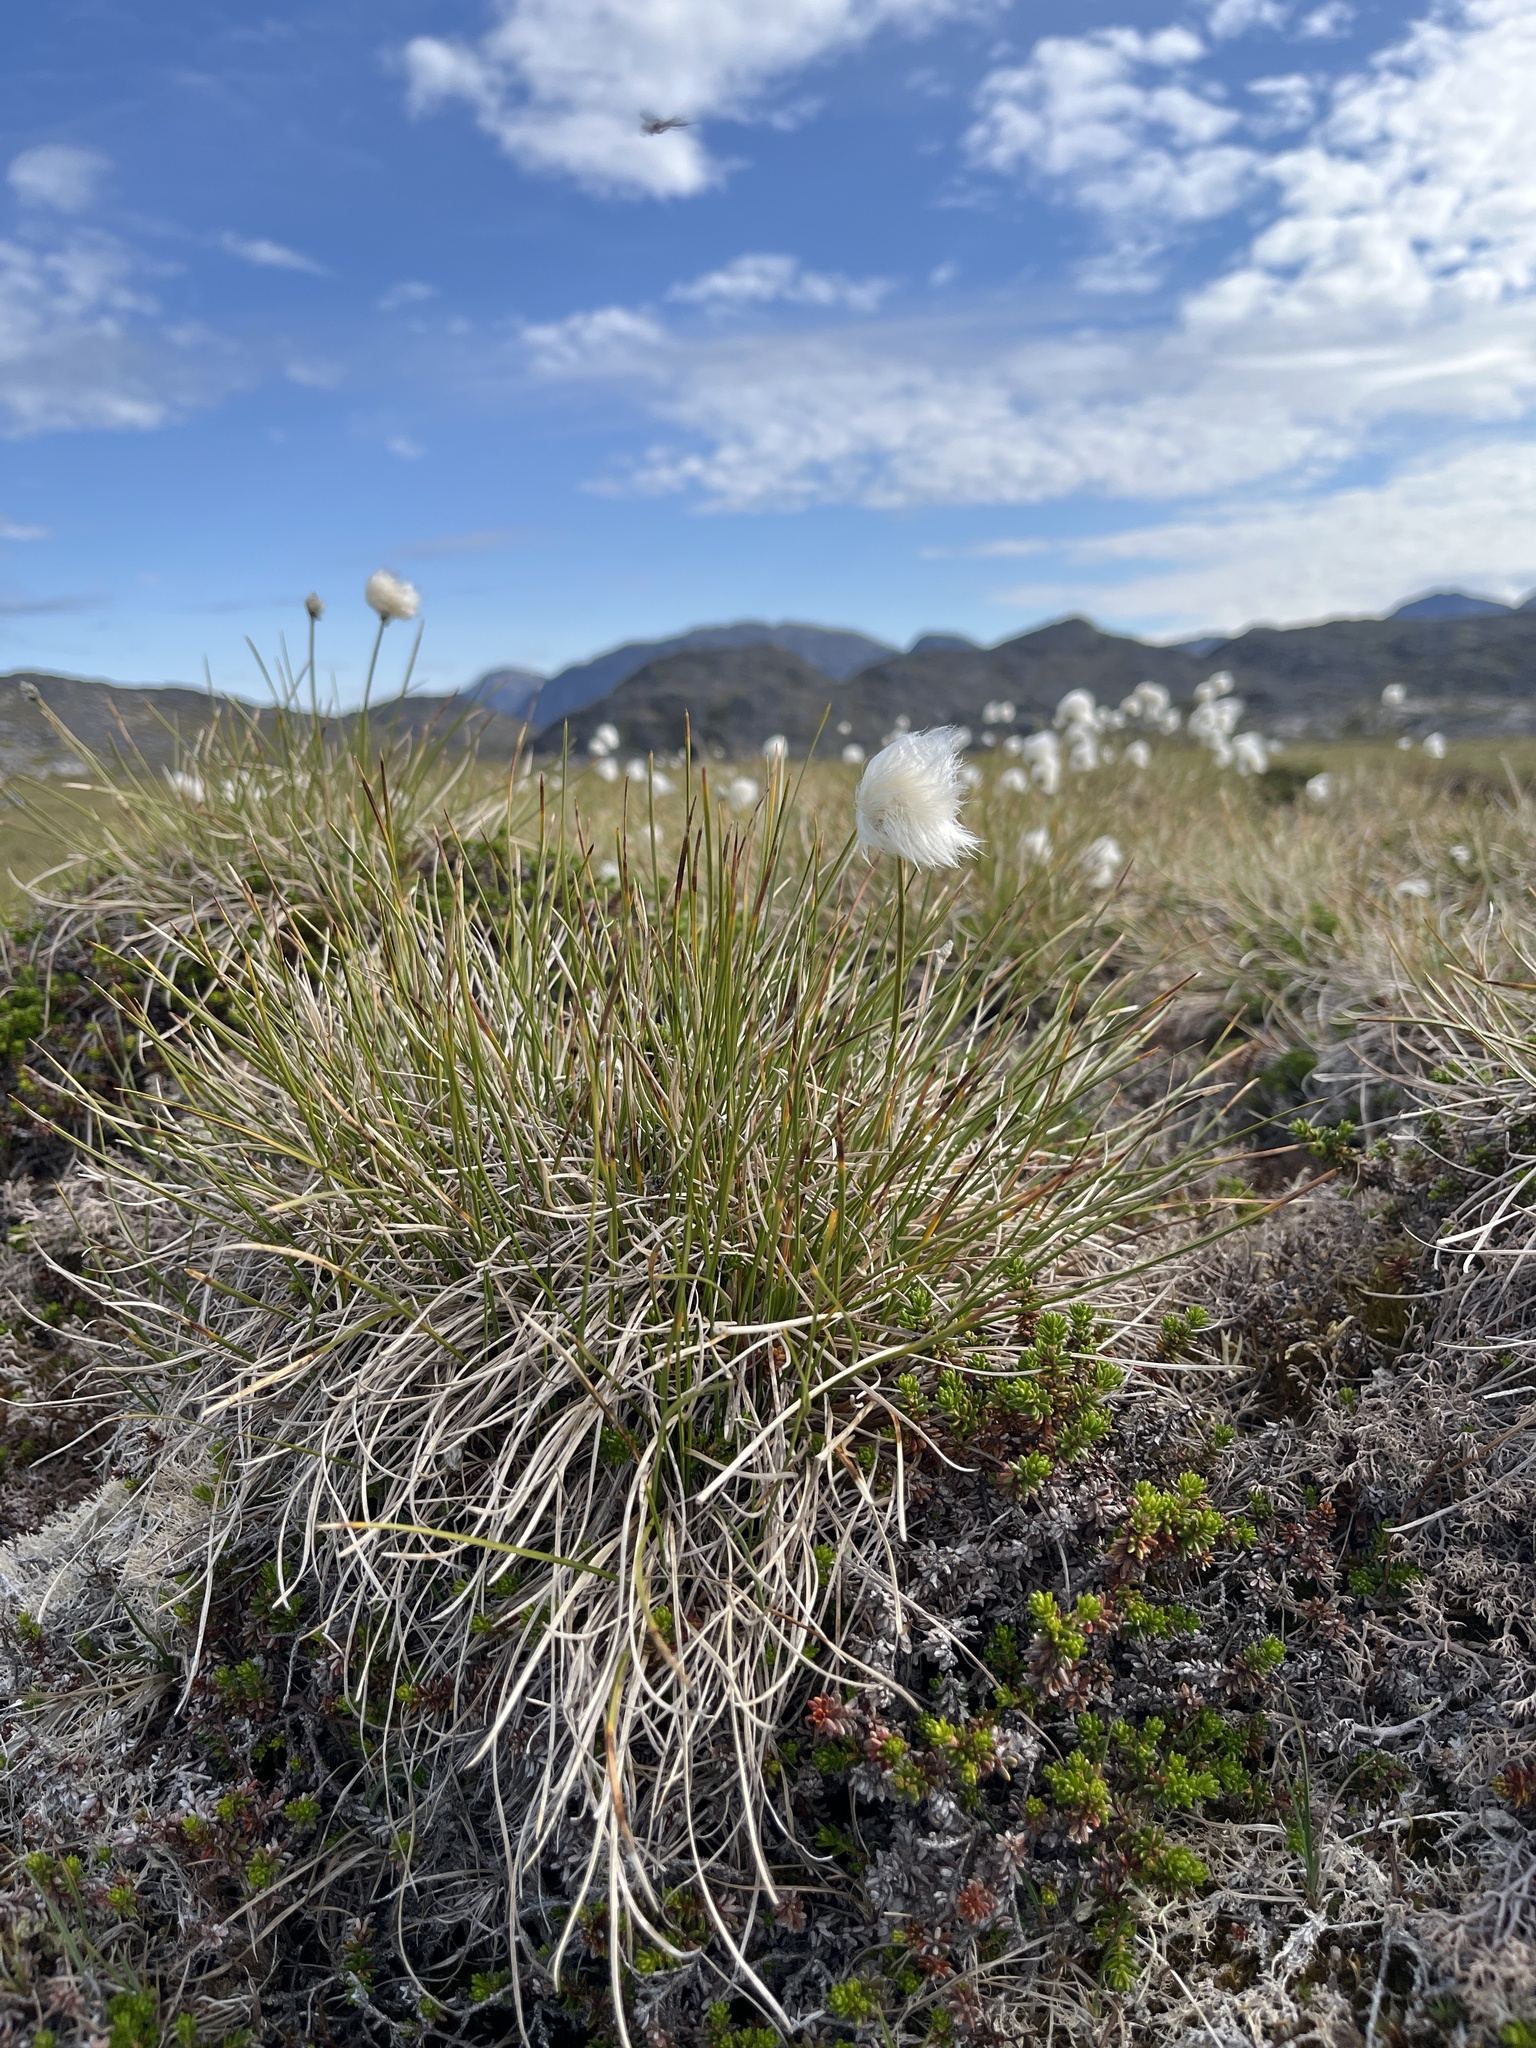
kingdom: Plantae
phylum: Tracheophyta
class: Liliopsida
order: Poales
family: Cyperaceae
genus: Eriophorum
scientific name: Eriophorum vaginatum
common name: Hare's-tail cottongrass
